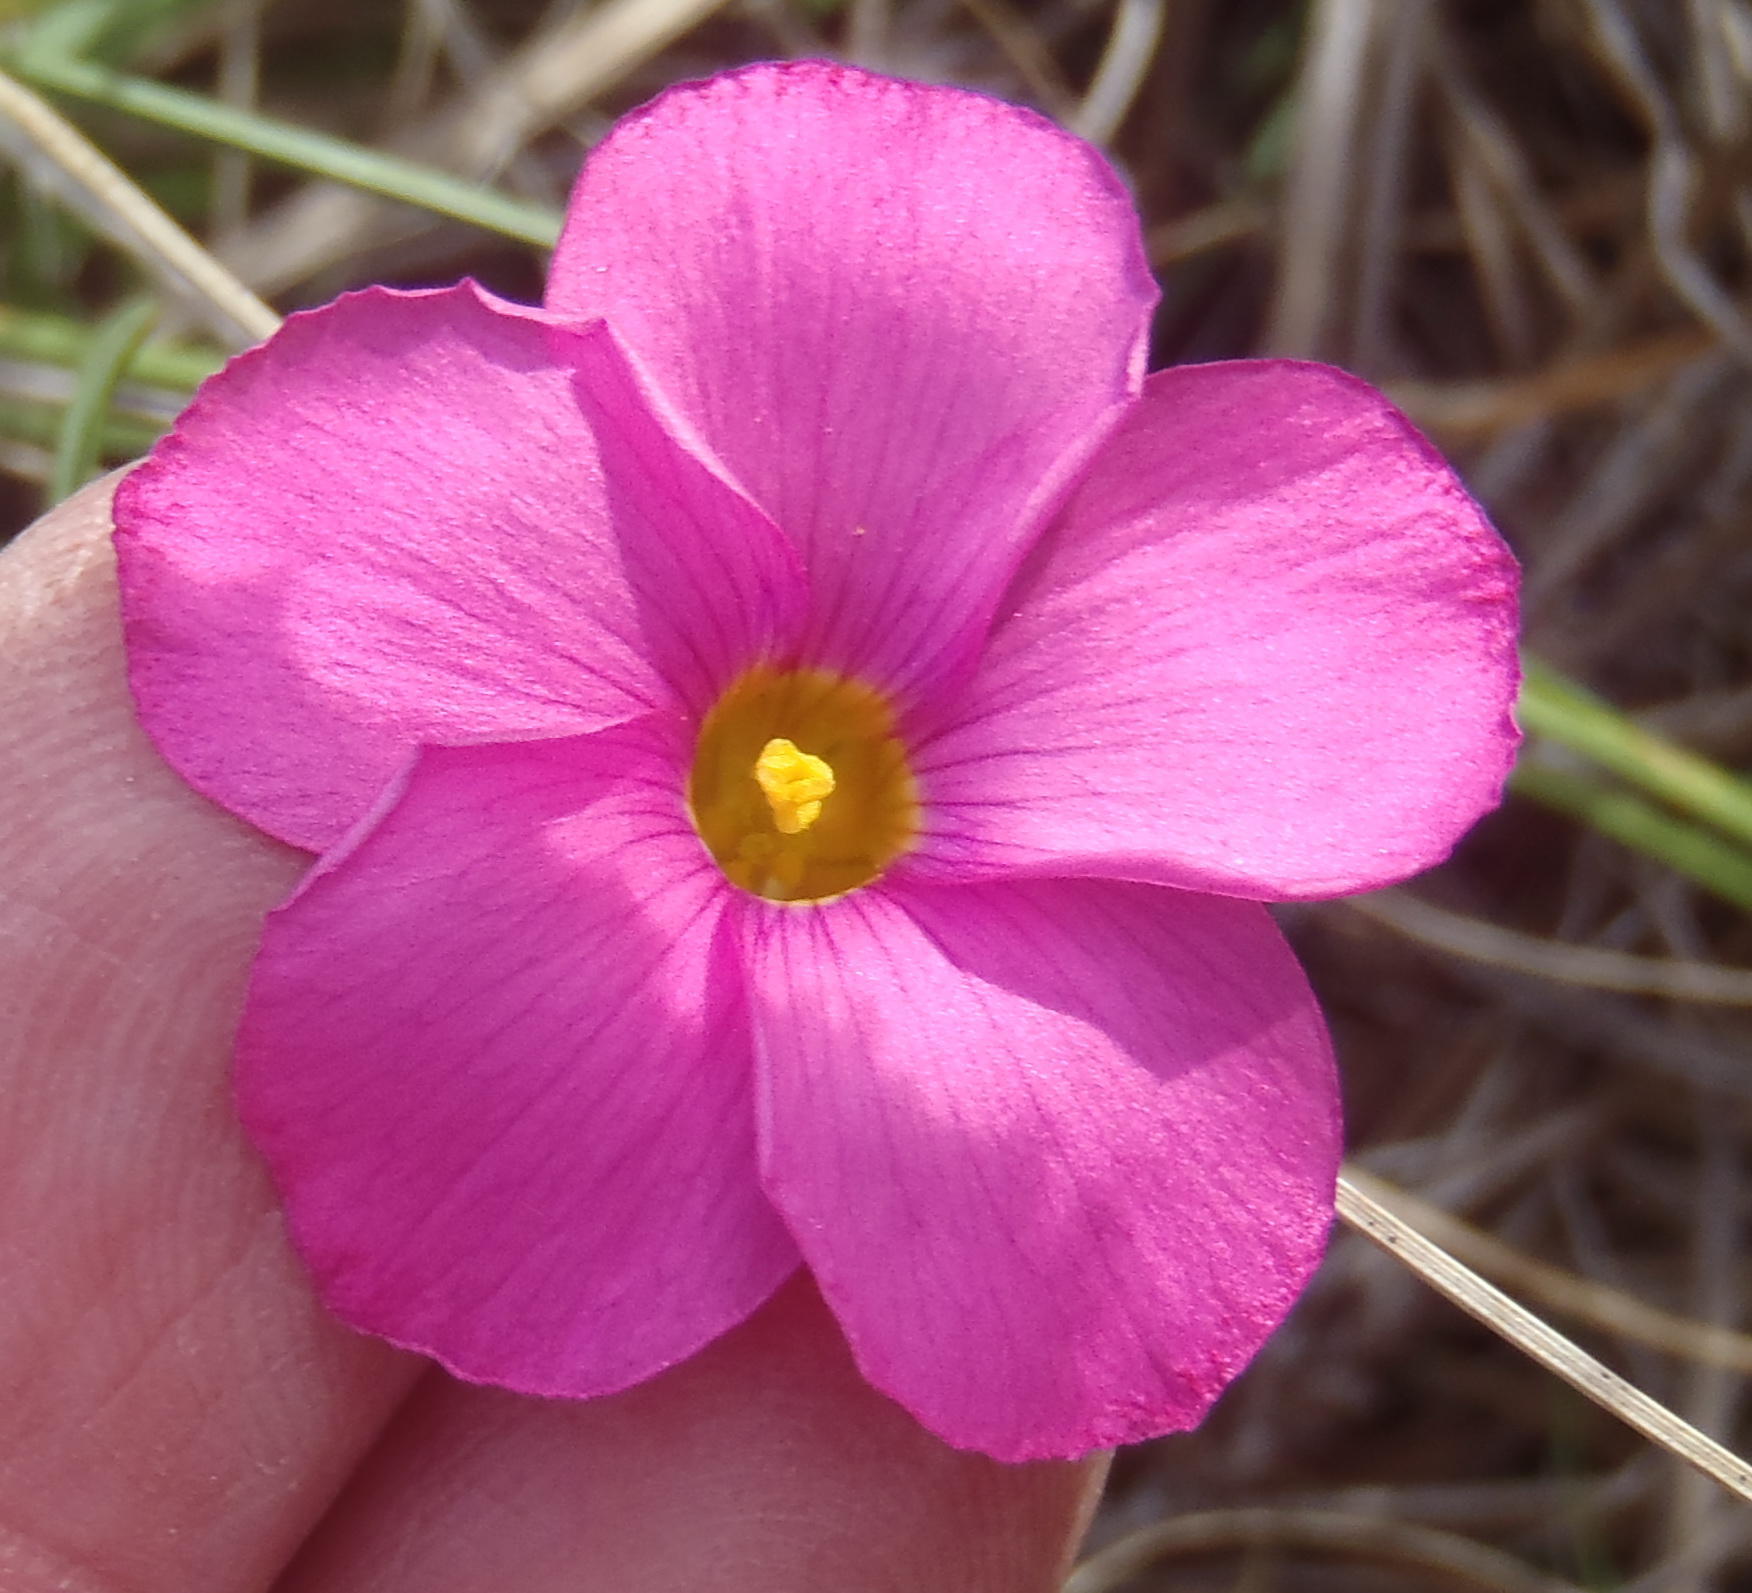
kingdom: Plantae
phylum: Tracheophyta
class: Magnoliopsida
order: Oxalidales
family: Oxalidaceae
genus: Oxalis
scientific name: Oxalis ciliaris
